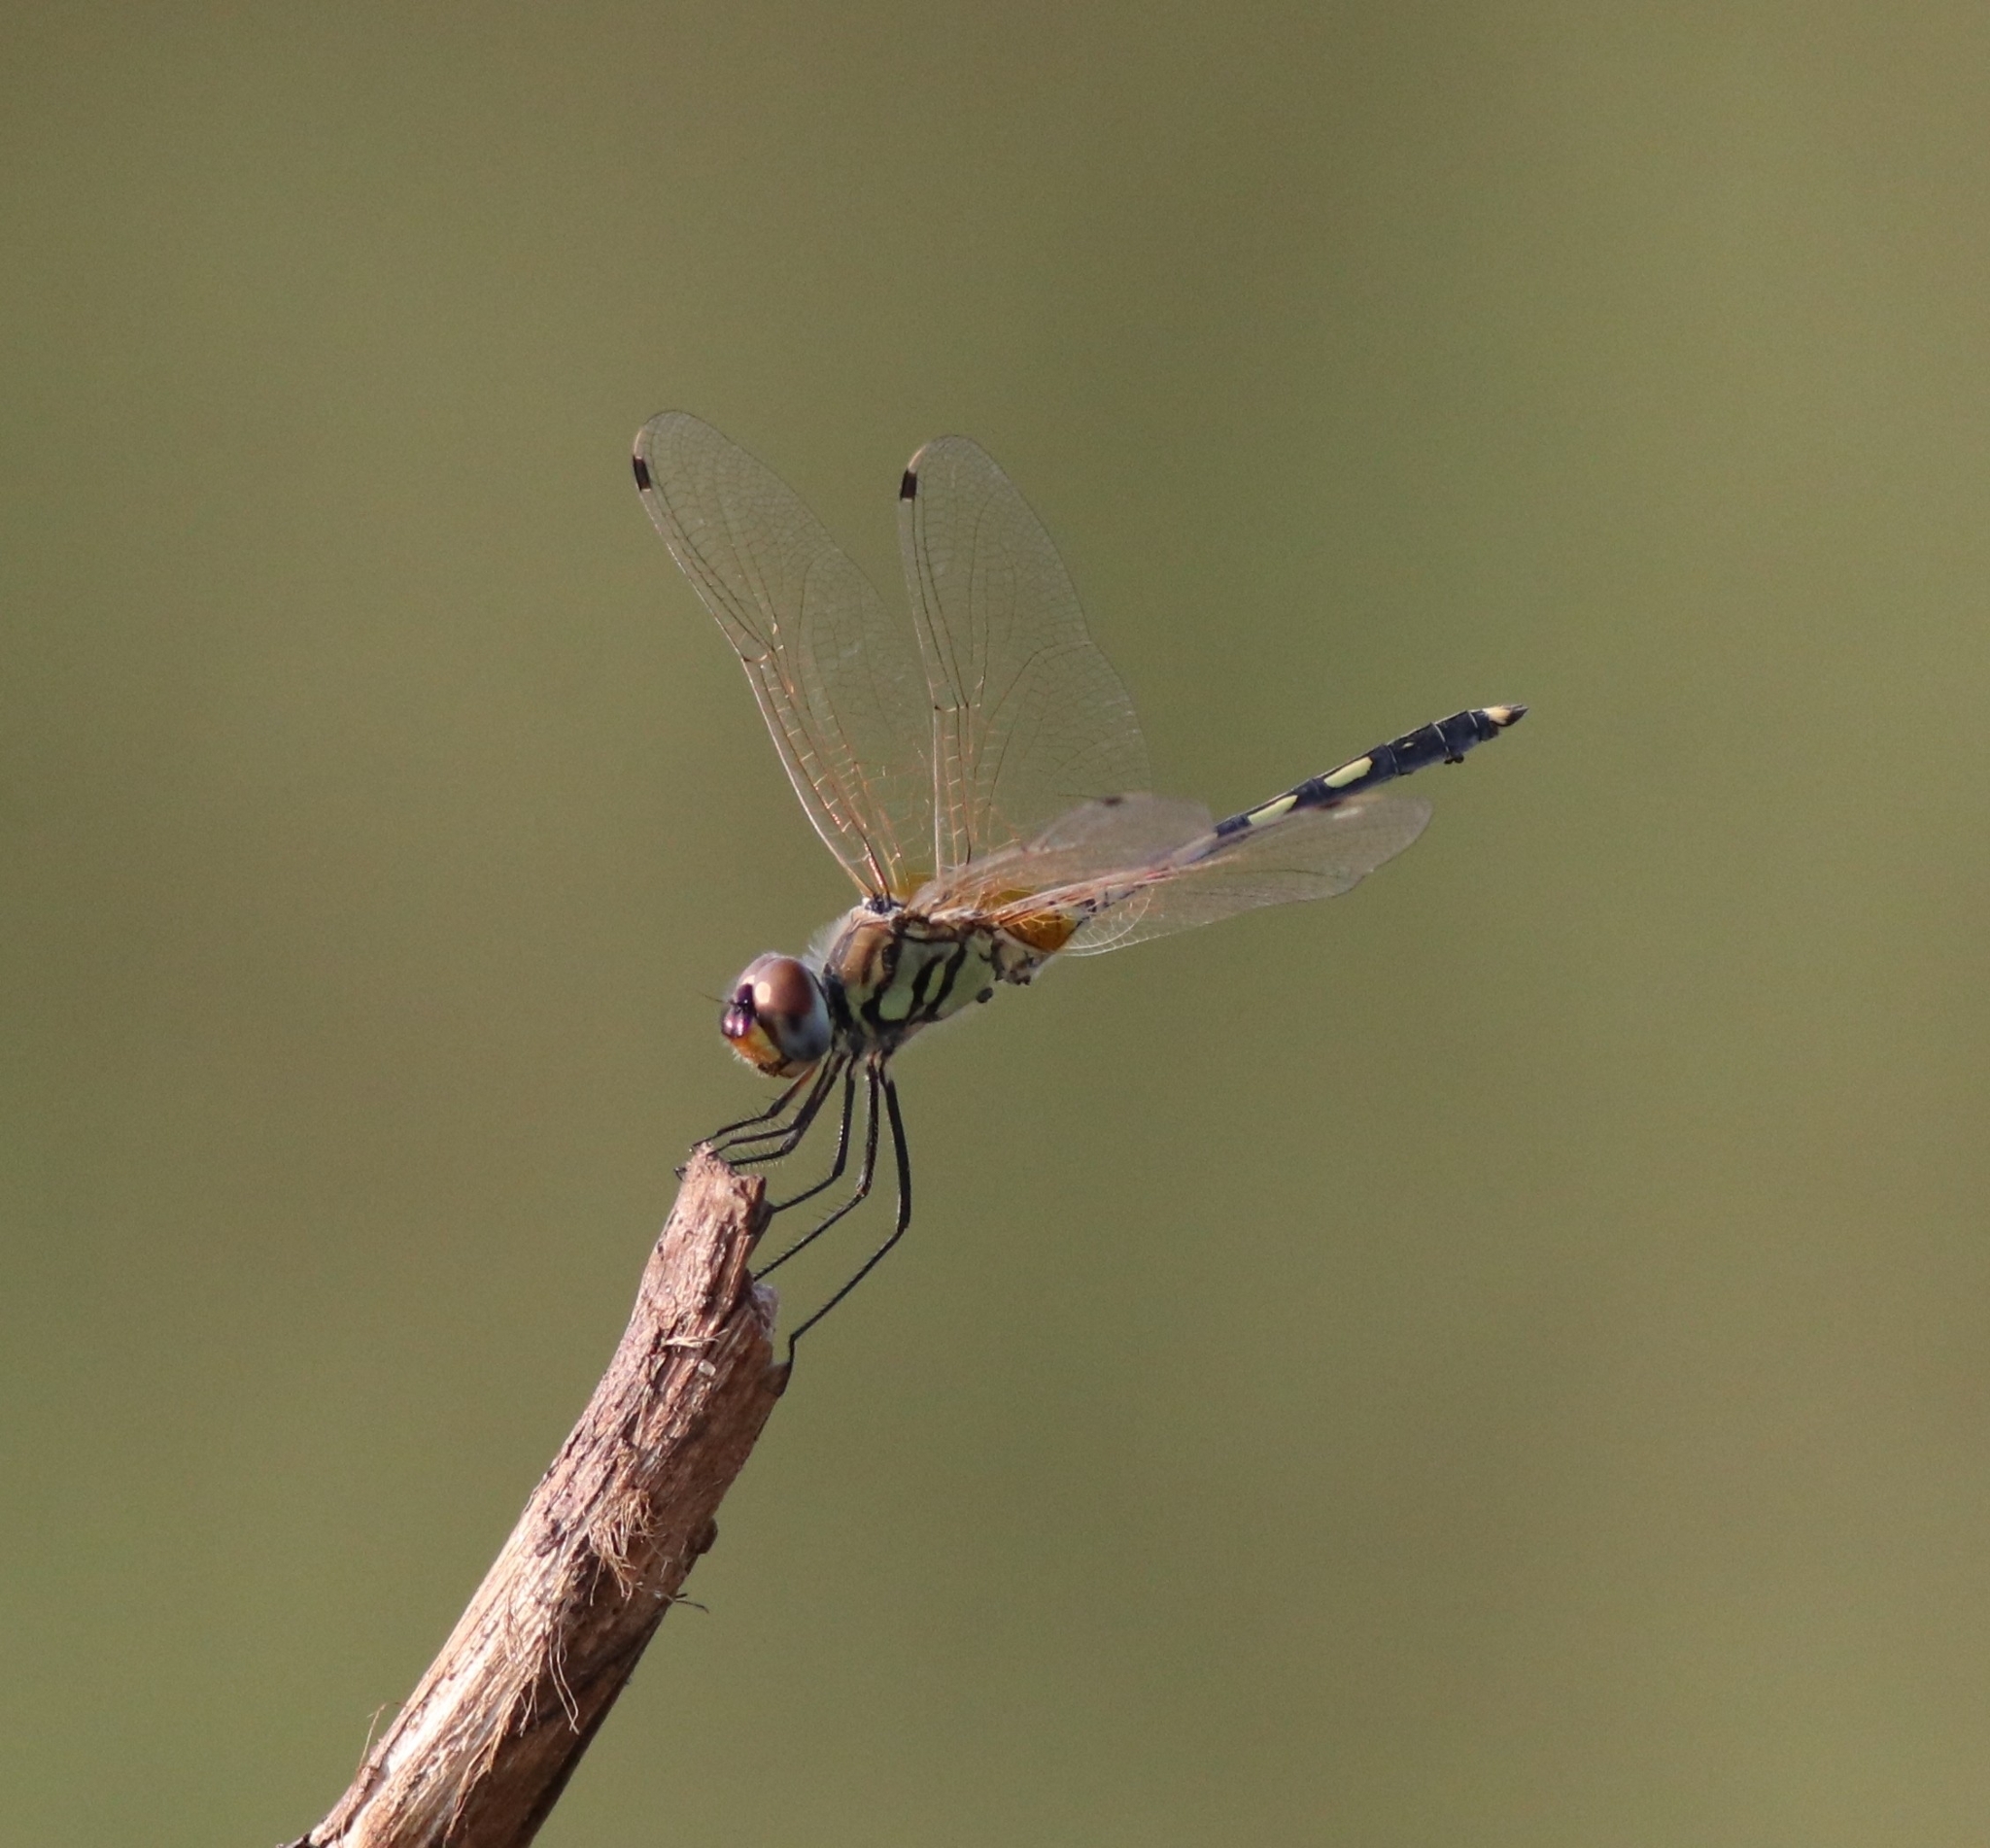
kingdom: Animalia
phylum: Arthropoda
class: Insecta
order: Odonata
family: Libellulidae
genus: Trithemis
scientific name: Trithemis pallidinervis
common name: Dancing dropwing
